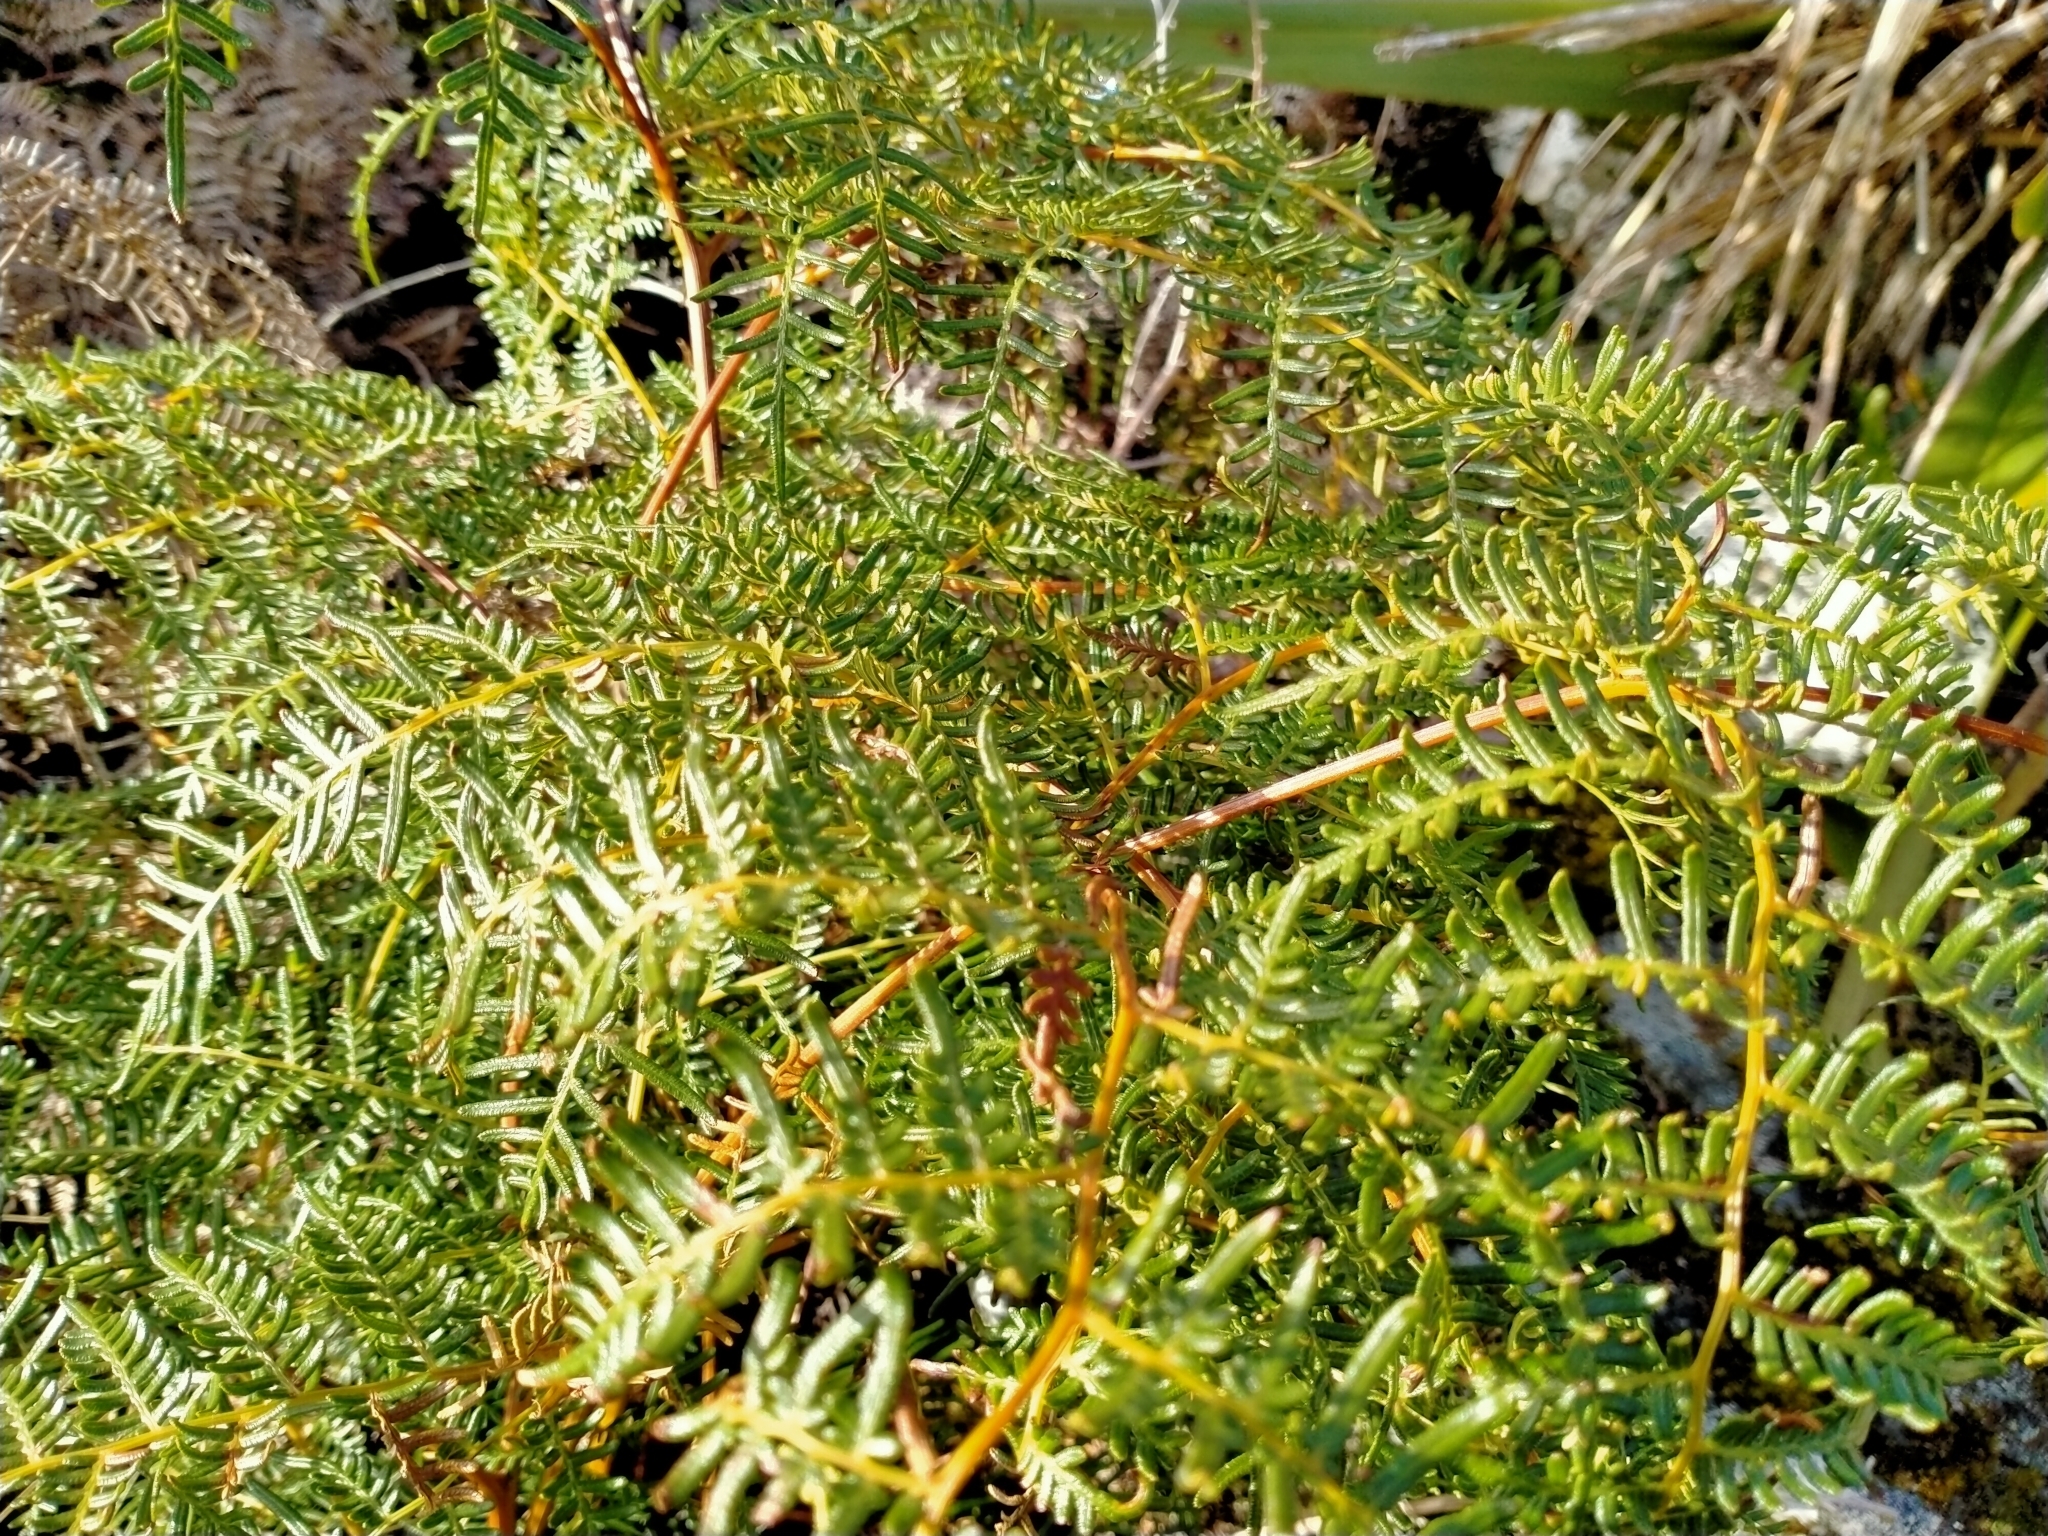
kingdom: Plantae
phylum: Tracheophyta
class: Polypodiopsida
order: Polypodiales
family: Dennstaedtiaceae
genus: Pteridium
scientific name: Pteridium esculentum
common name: Bracken fern
